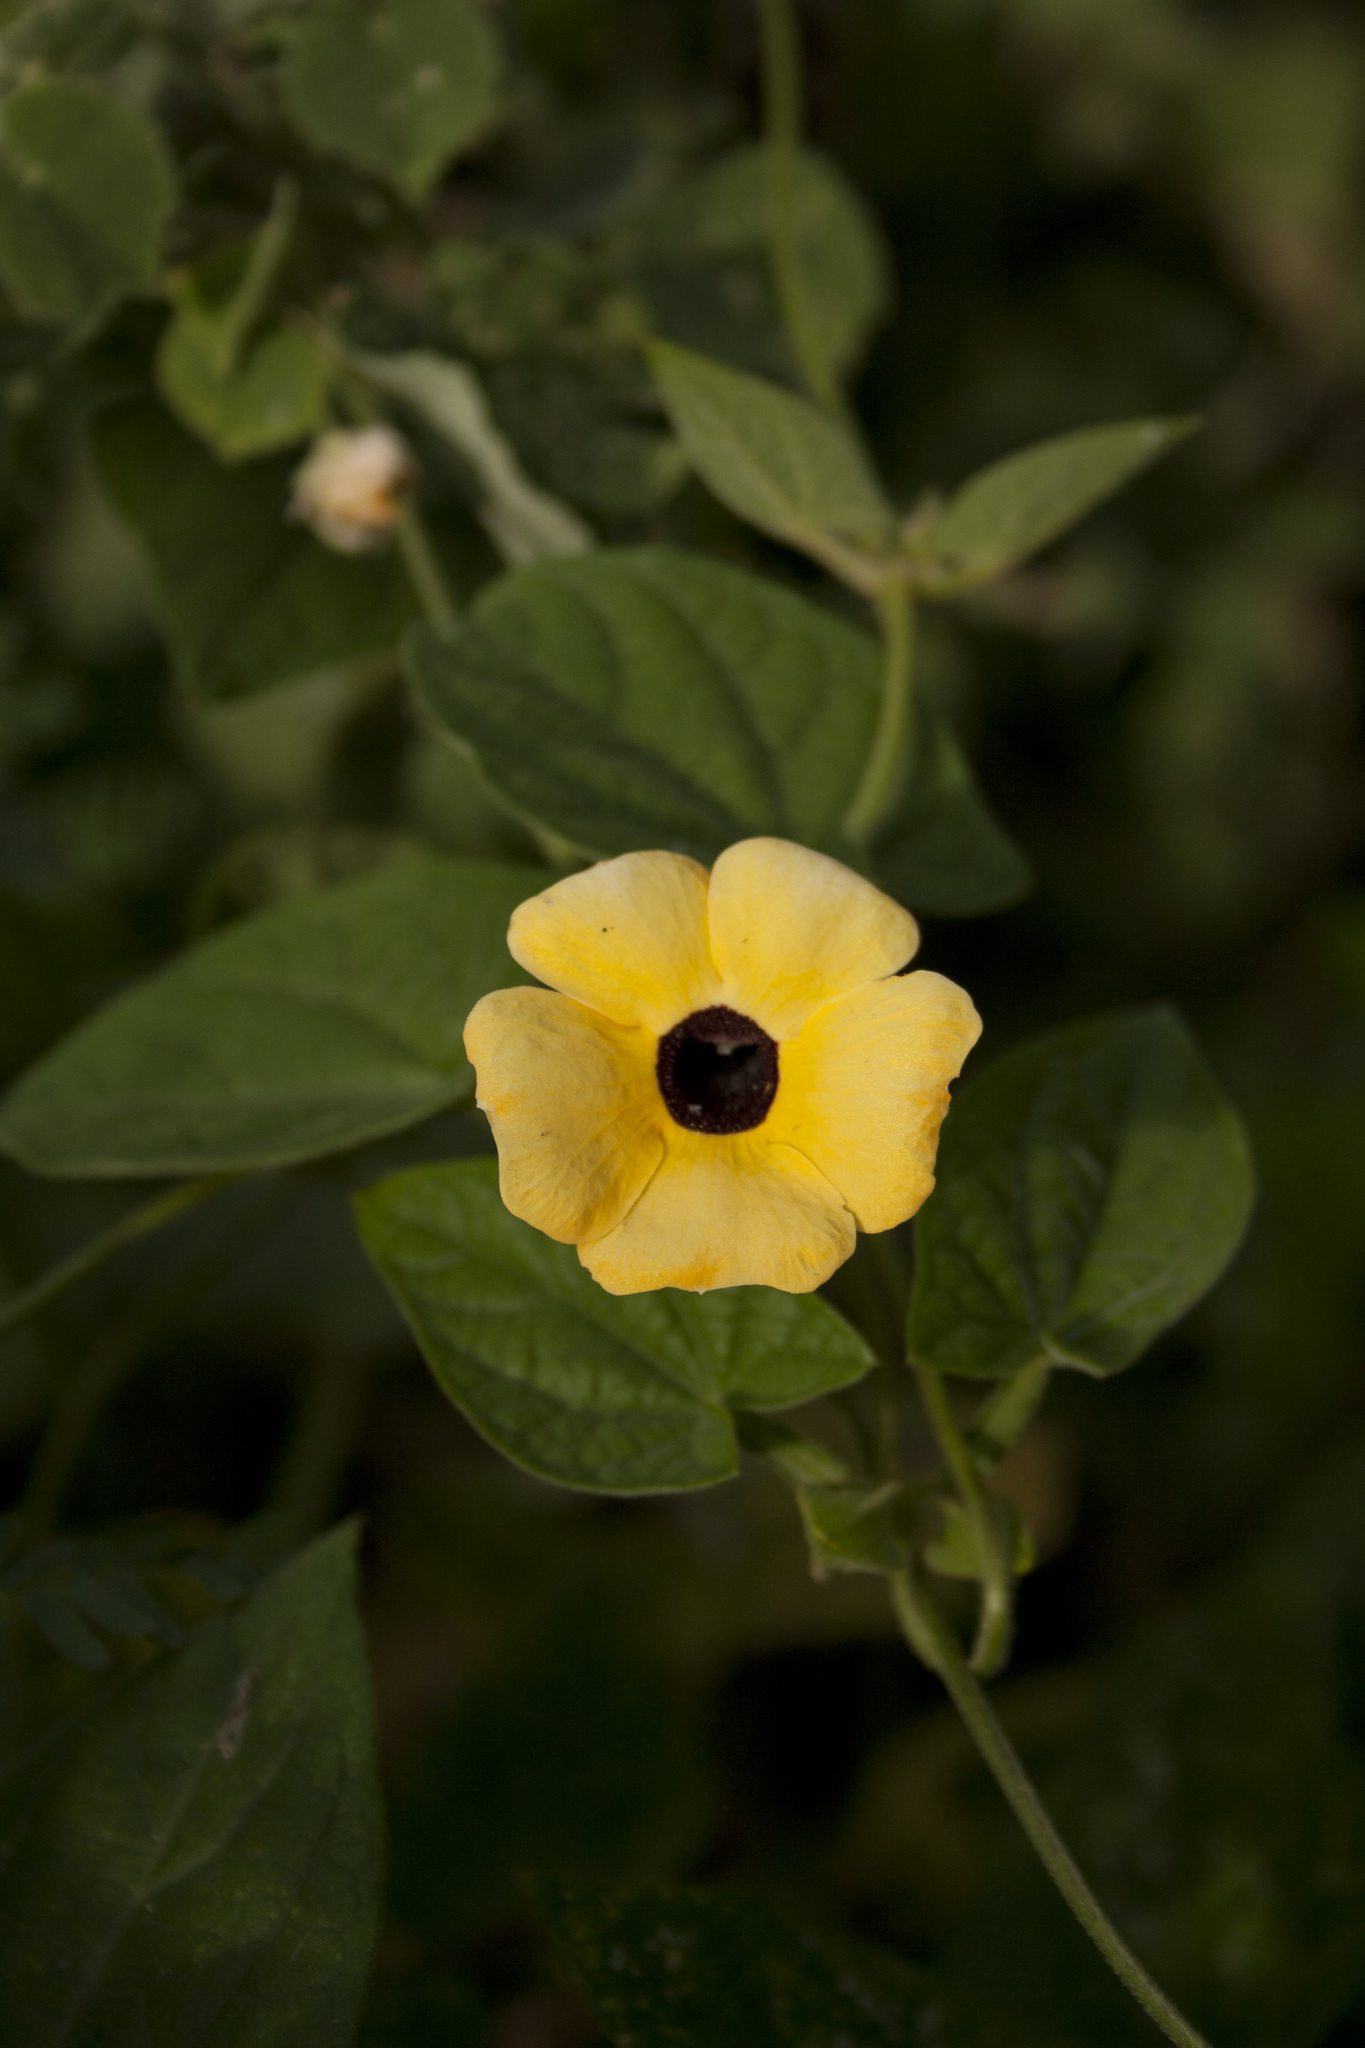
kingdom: Plantae
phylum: Tracheophyta
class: Magnoliopsida
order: Lamiales
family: Acanthaceae
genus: Thunbergia
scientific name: Thunbergia alata
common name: Blackeyed susan vine
